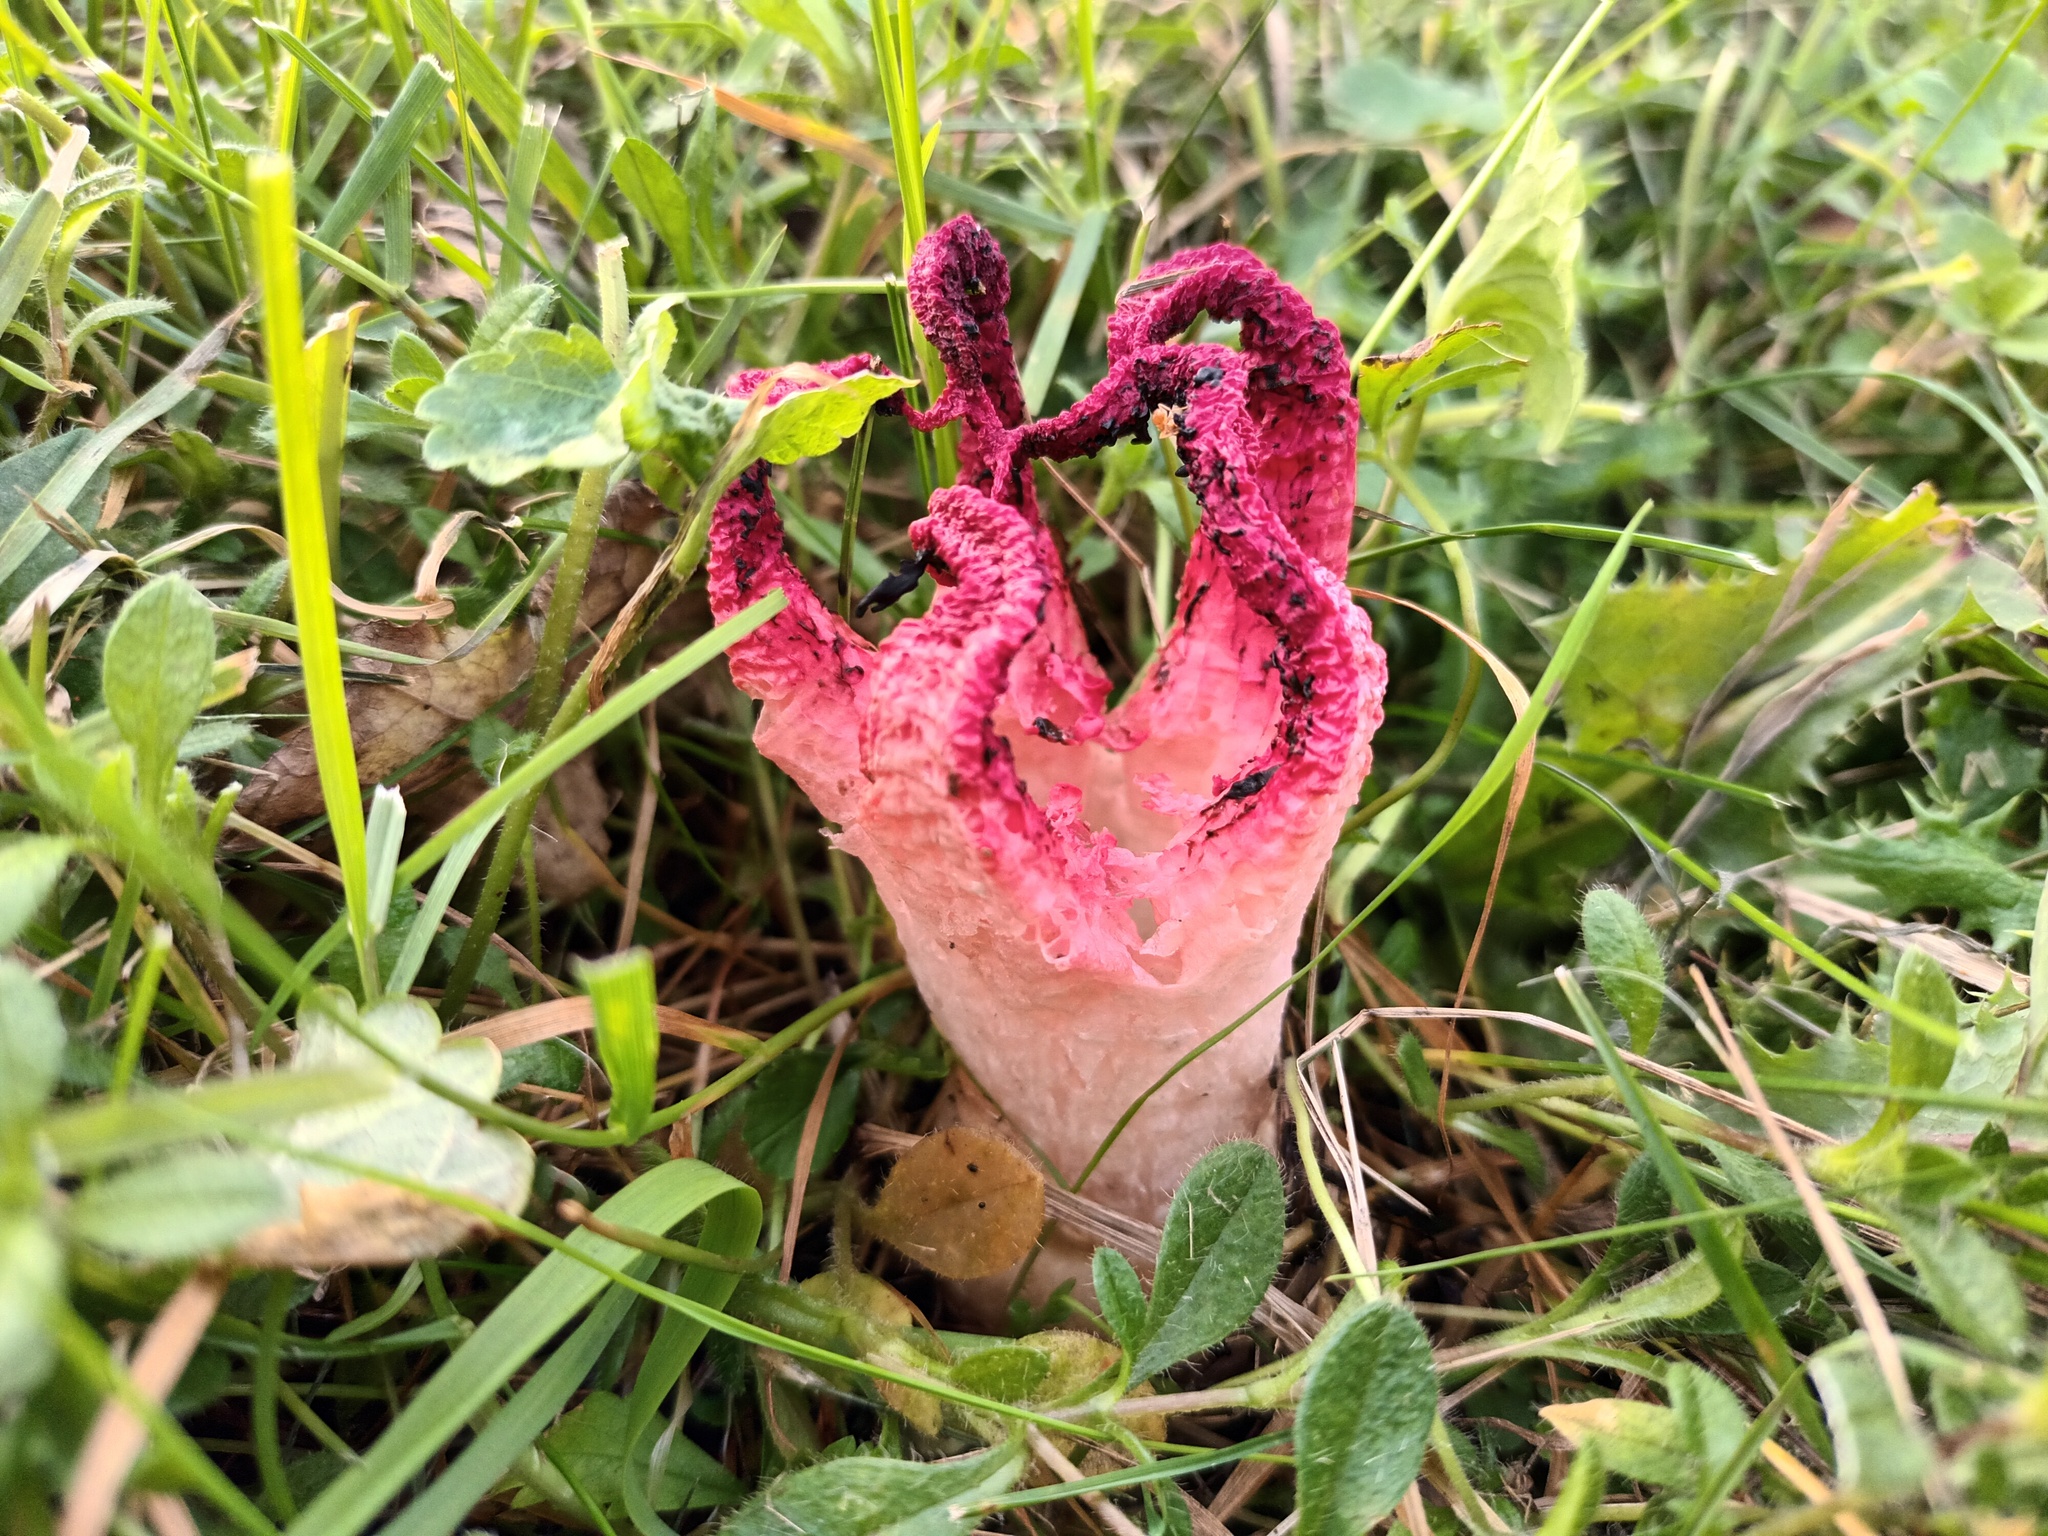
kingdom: Fungi
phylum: Basidiomycota
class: Agaricomycetes
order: Phallales
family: Phallaceae
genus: Clathrus
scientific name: Clathrus archeri
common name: Devil's fingers
